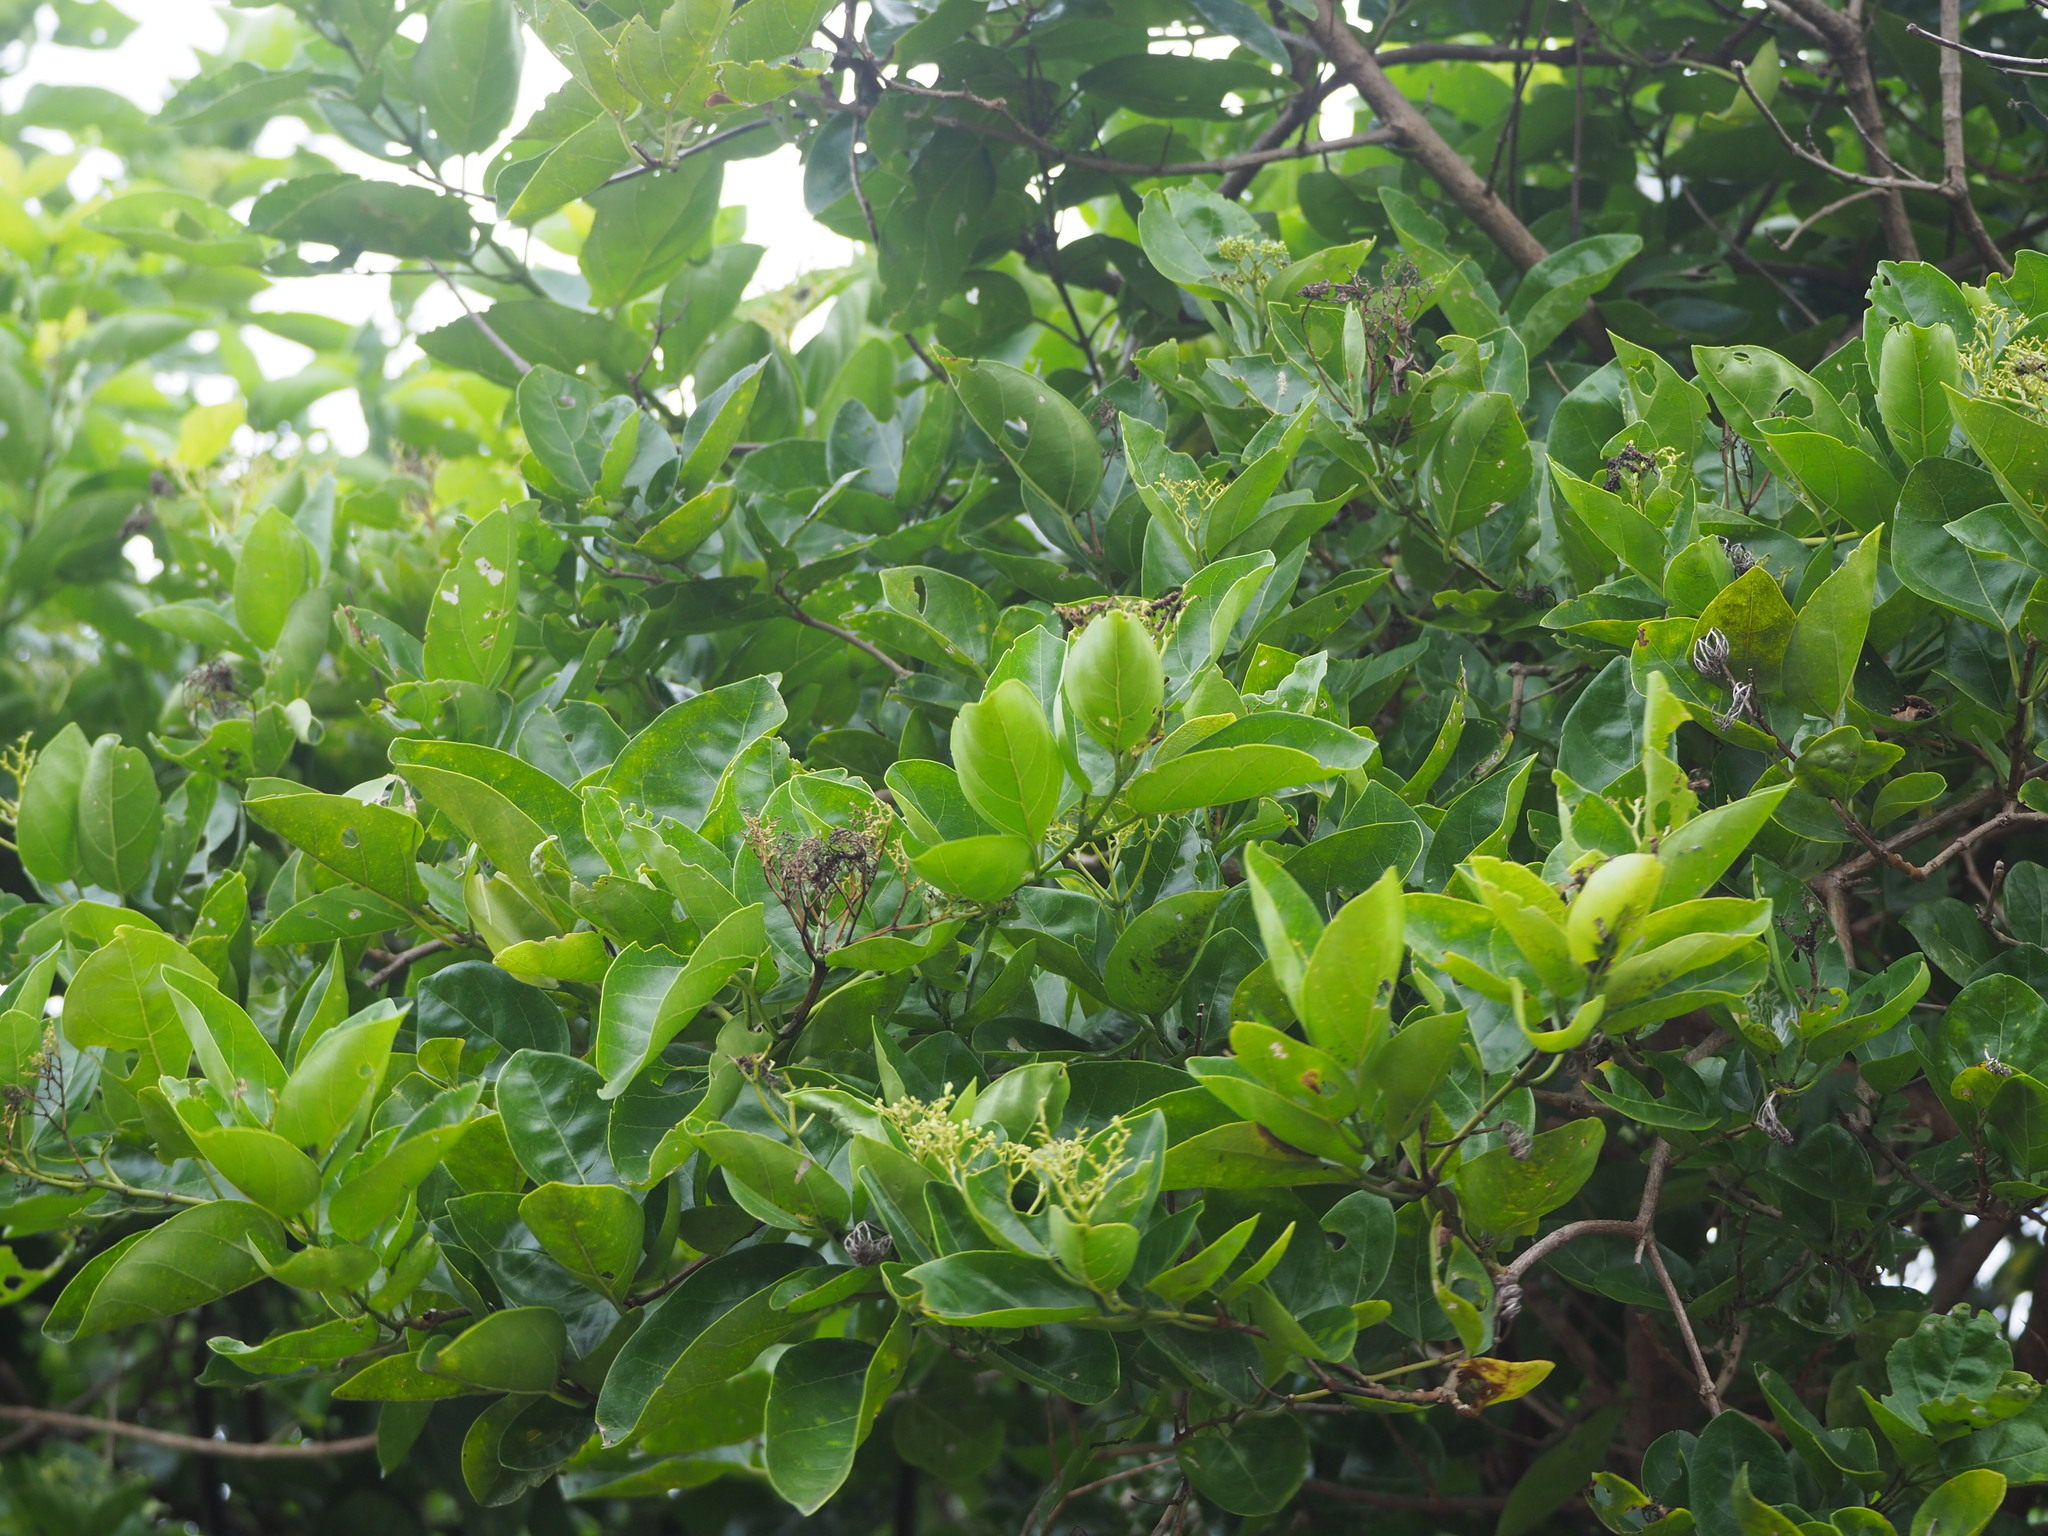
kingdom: Plantae
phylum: Tracheophyta
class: Magnoliopsida
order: Lamiales
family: Lamiaceae
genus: Premna
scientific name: Premna serratifolia
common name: Bastard guelder
